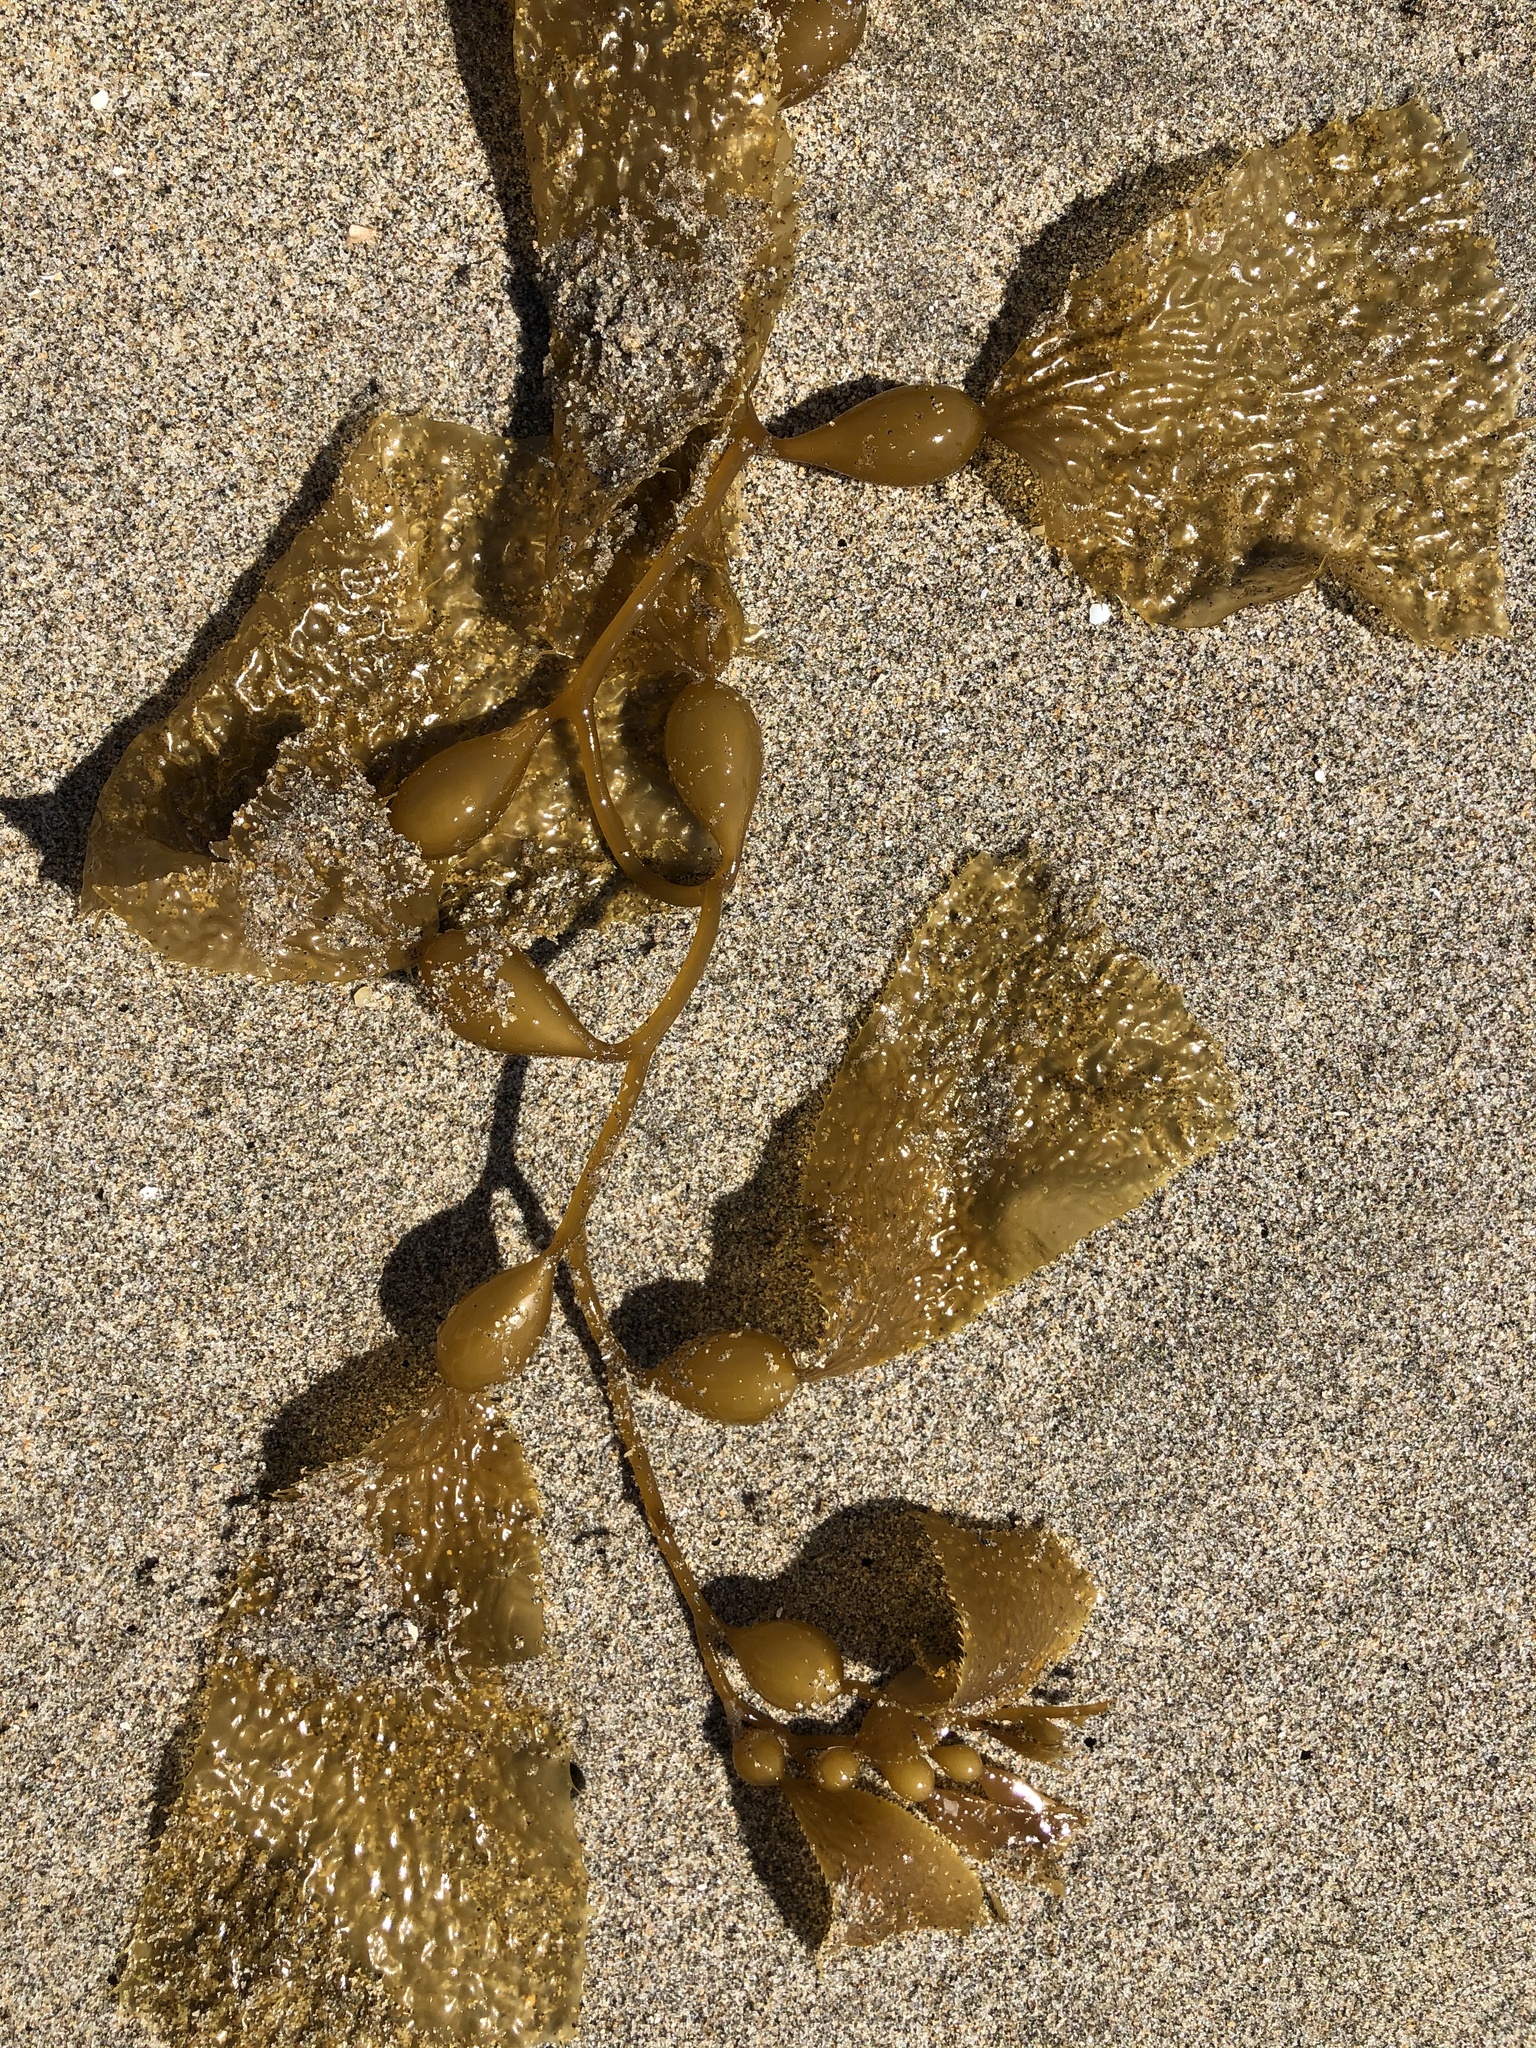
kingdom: Chromista
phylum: Ochrophyta
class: Phaeophyceae
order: Laminariales
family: Laminariaceae
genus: Macrocystis
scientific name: Macrocystis pyrifera
